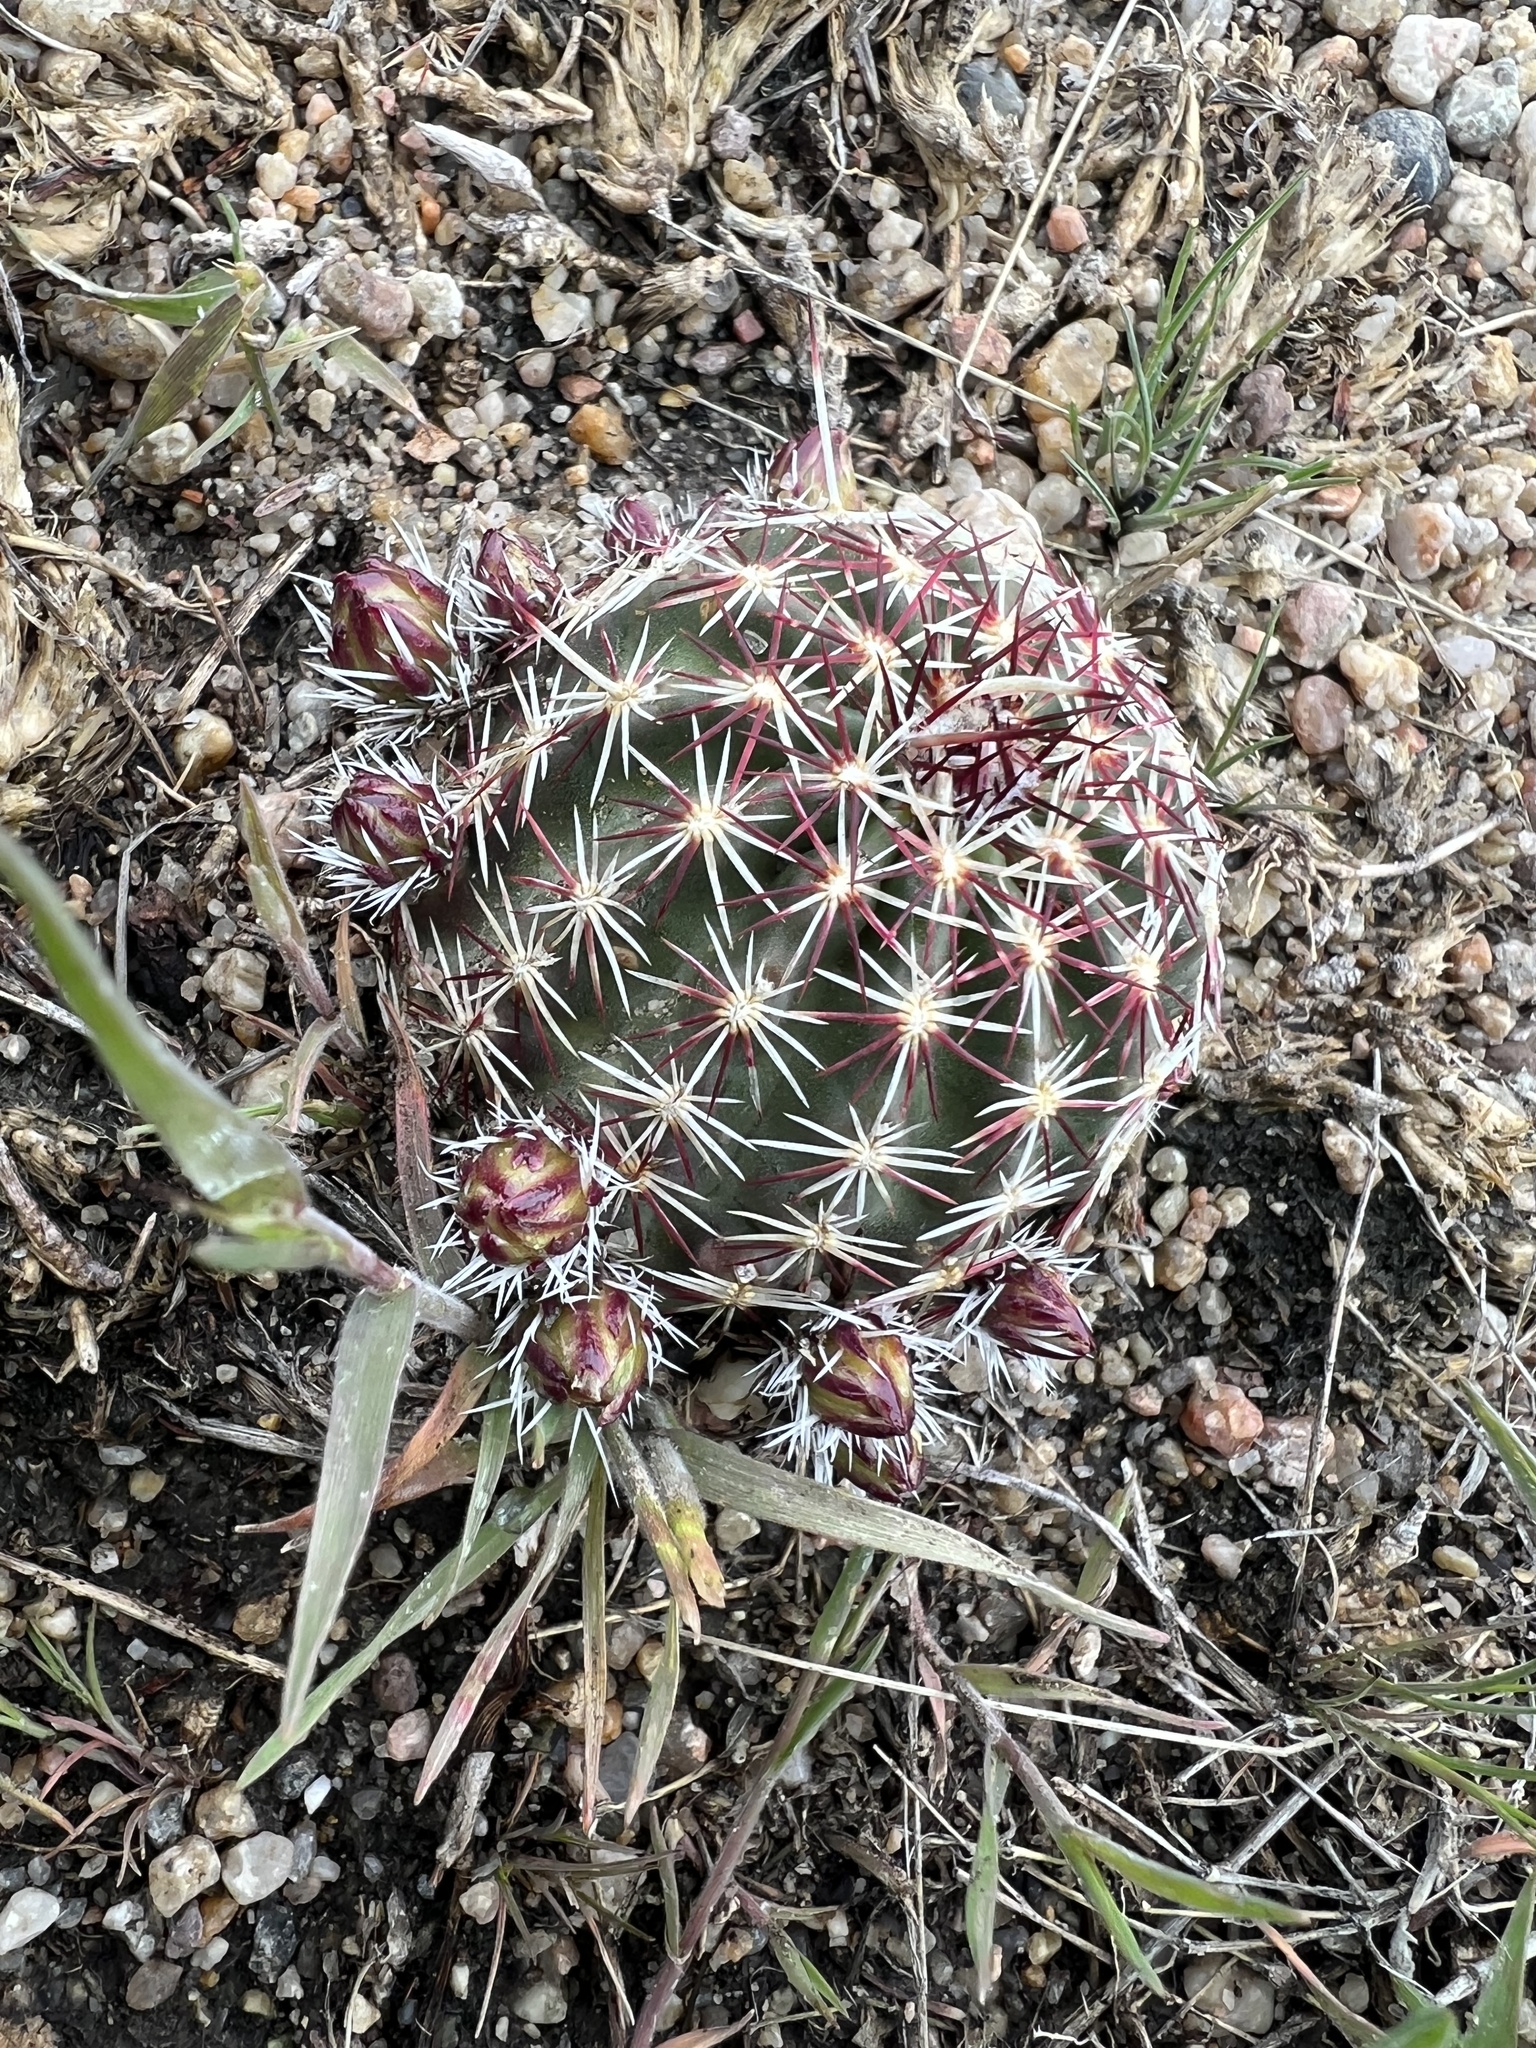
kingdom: Plantae
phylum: Tracheophyta
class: Magnoliopsida
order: Caryophyllales
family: Cactaceae
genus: Echinocereus
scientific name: Echinocereus viridiflorus
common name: Nylon hedgehog cactus
